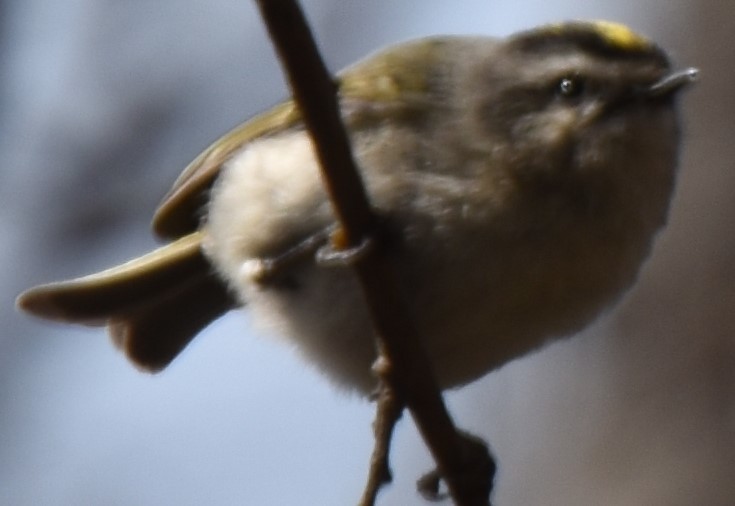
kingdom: Animalia
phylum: Chordata
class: Aves
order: Passeriformes
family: Regulidae
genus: Regulus
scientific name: Regulus satrapa
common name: Golden-crowned kinglet
